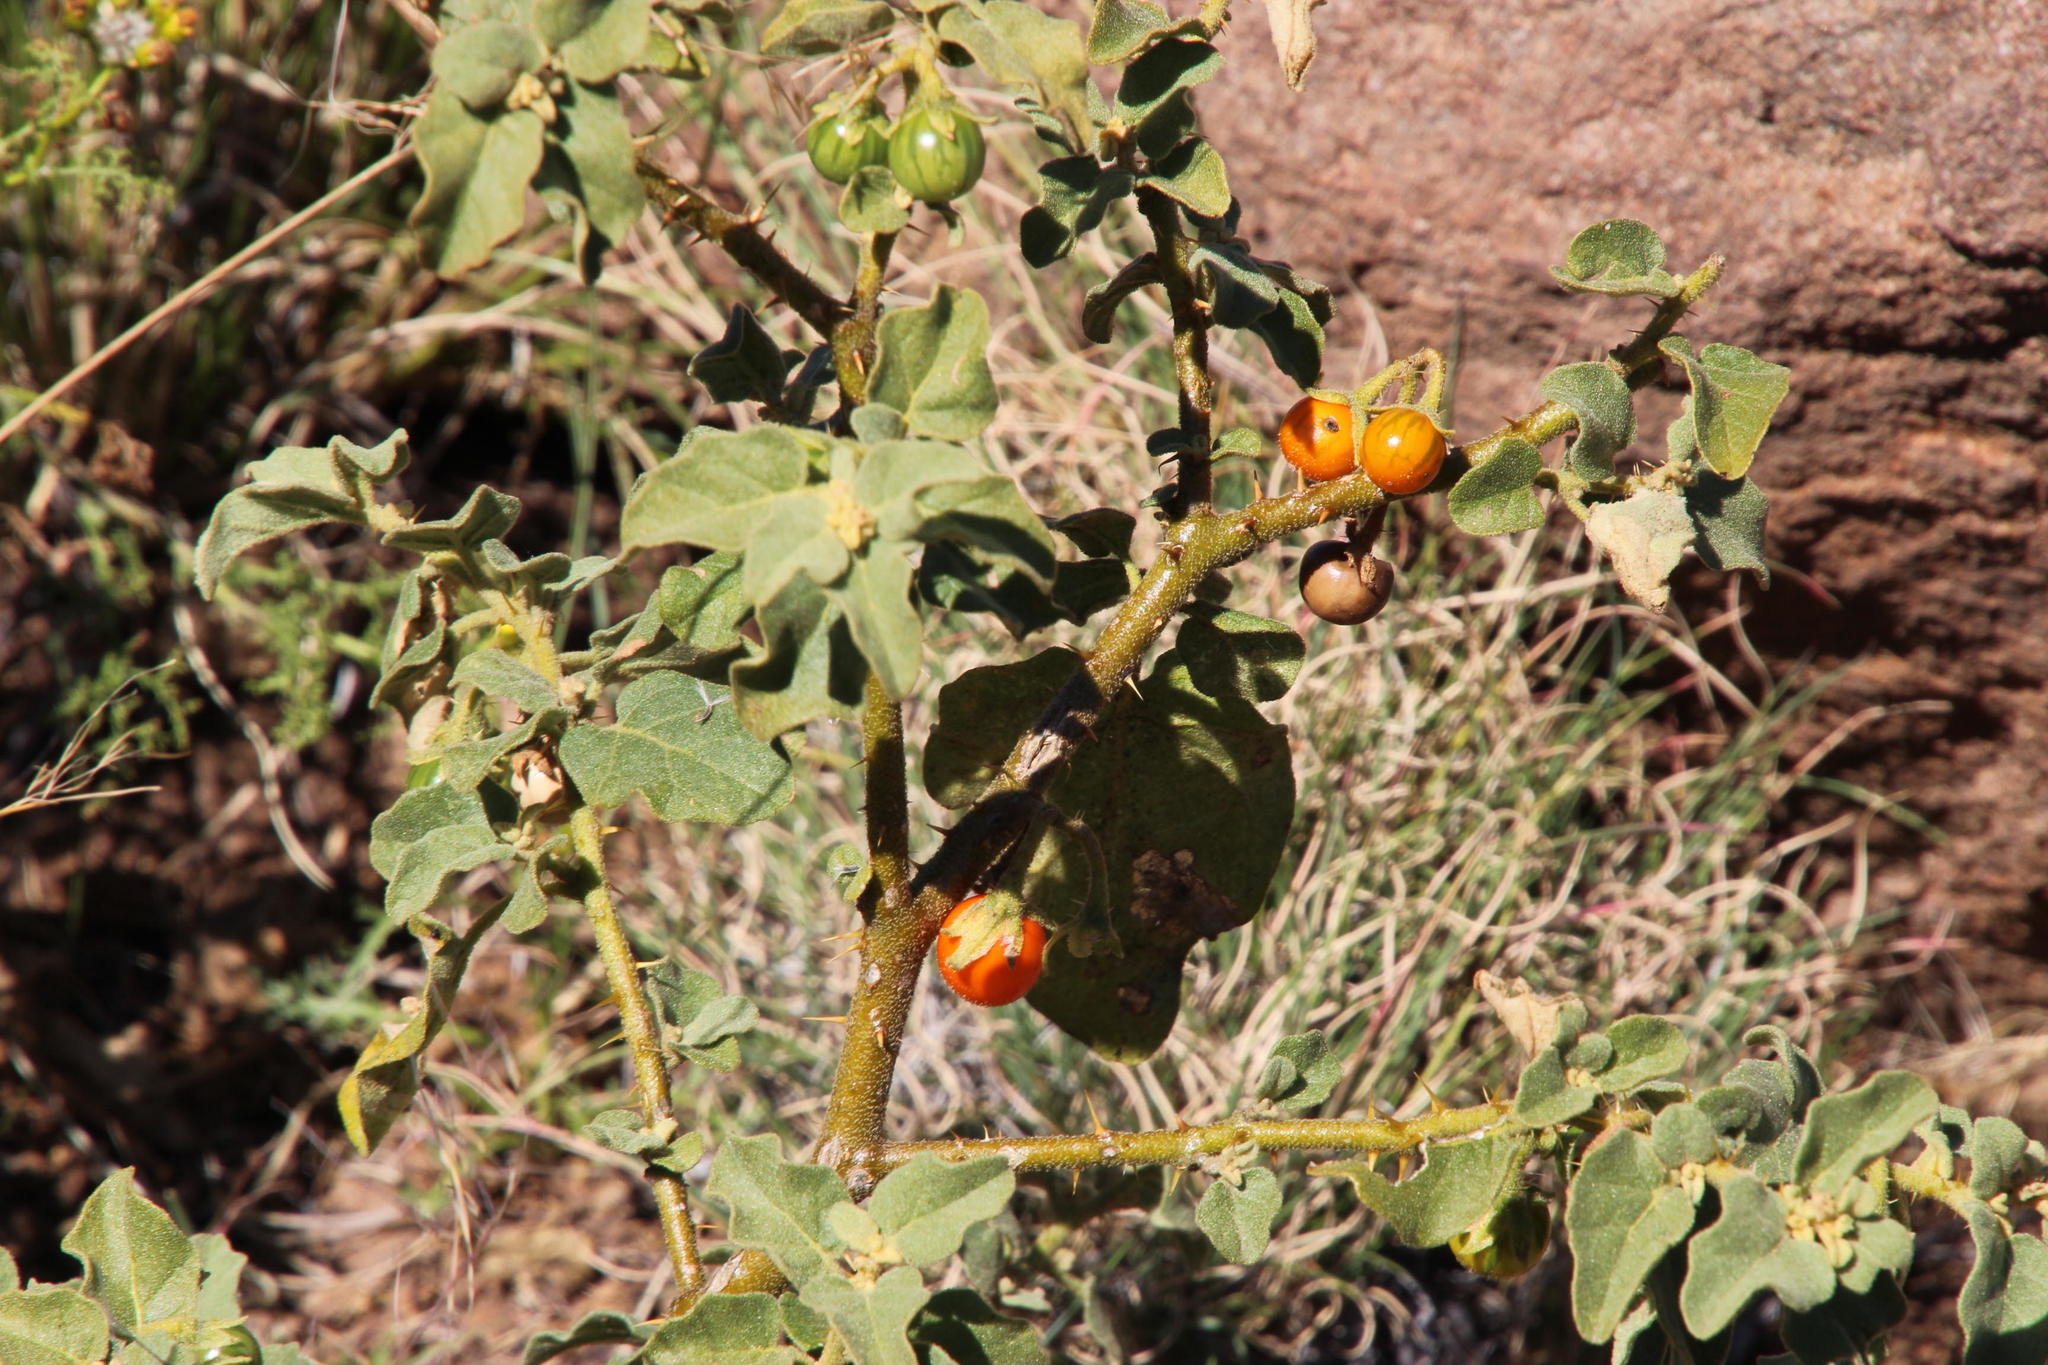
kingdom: Plantae
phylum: Tracheophyta
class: Magnoliopsida
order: Solanales
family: Solanaceae
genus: Solanum
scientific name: Solanum tomentosum
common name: Wild aubergine
